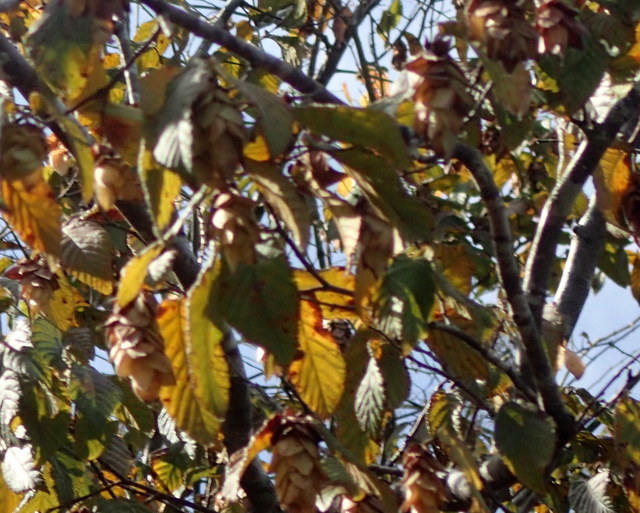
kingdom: Plantae
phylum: Tracheophyta
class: Magnoliopsida
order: Fagales
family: Betulaceae
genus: Ostrya
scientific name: Ostrya virginiana
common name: Ironwood
